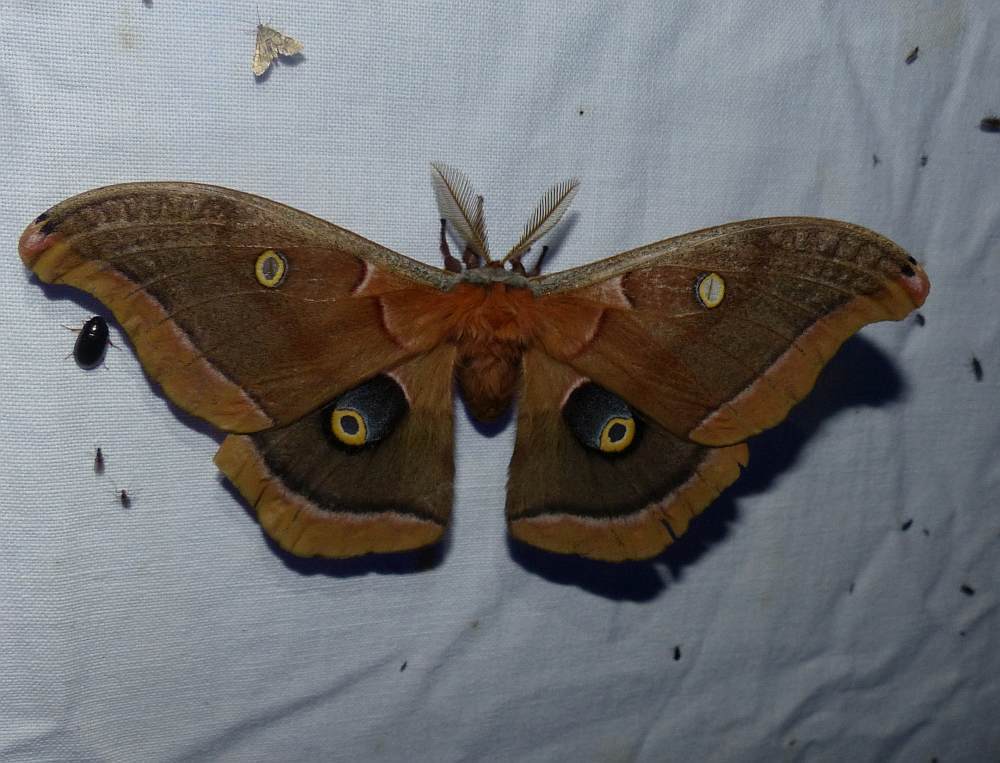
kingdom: Animalia
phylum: Arthropoda
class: Insecta
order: Lepidoptera
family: Saturniidae
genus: Antheraea
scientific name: Antheraea polyphemus
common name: Polyphemus moth
